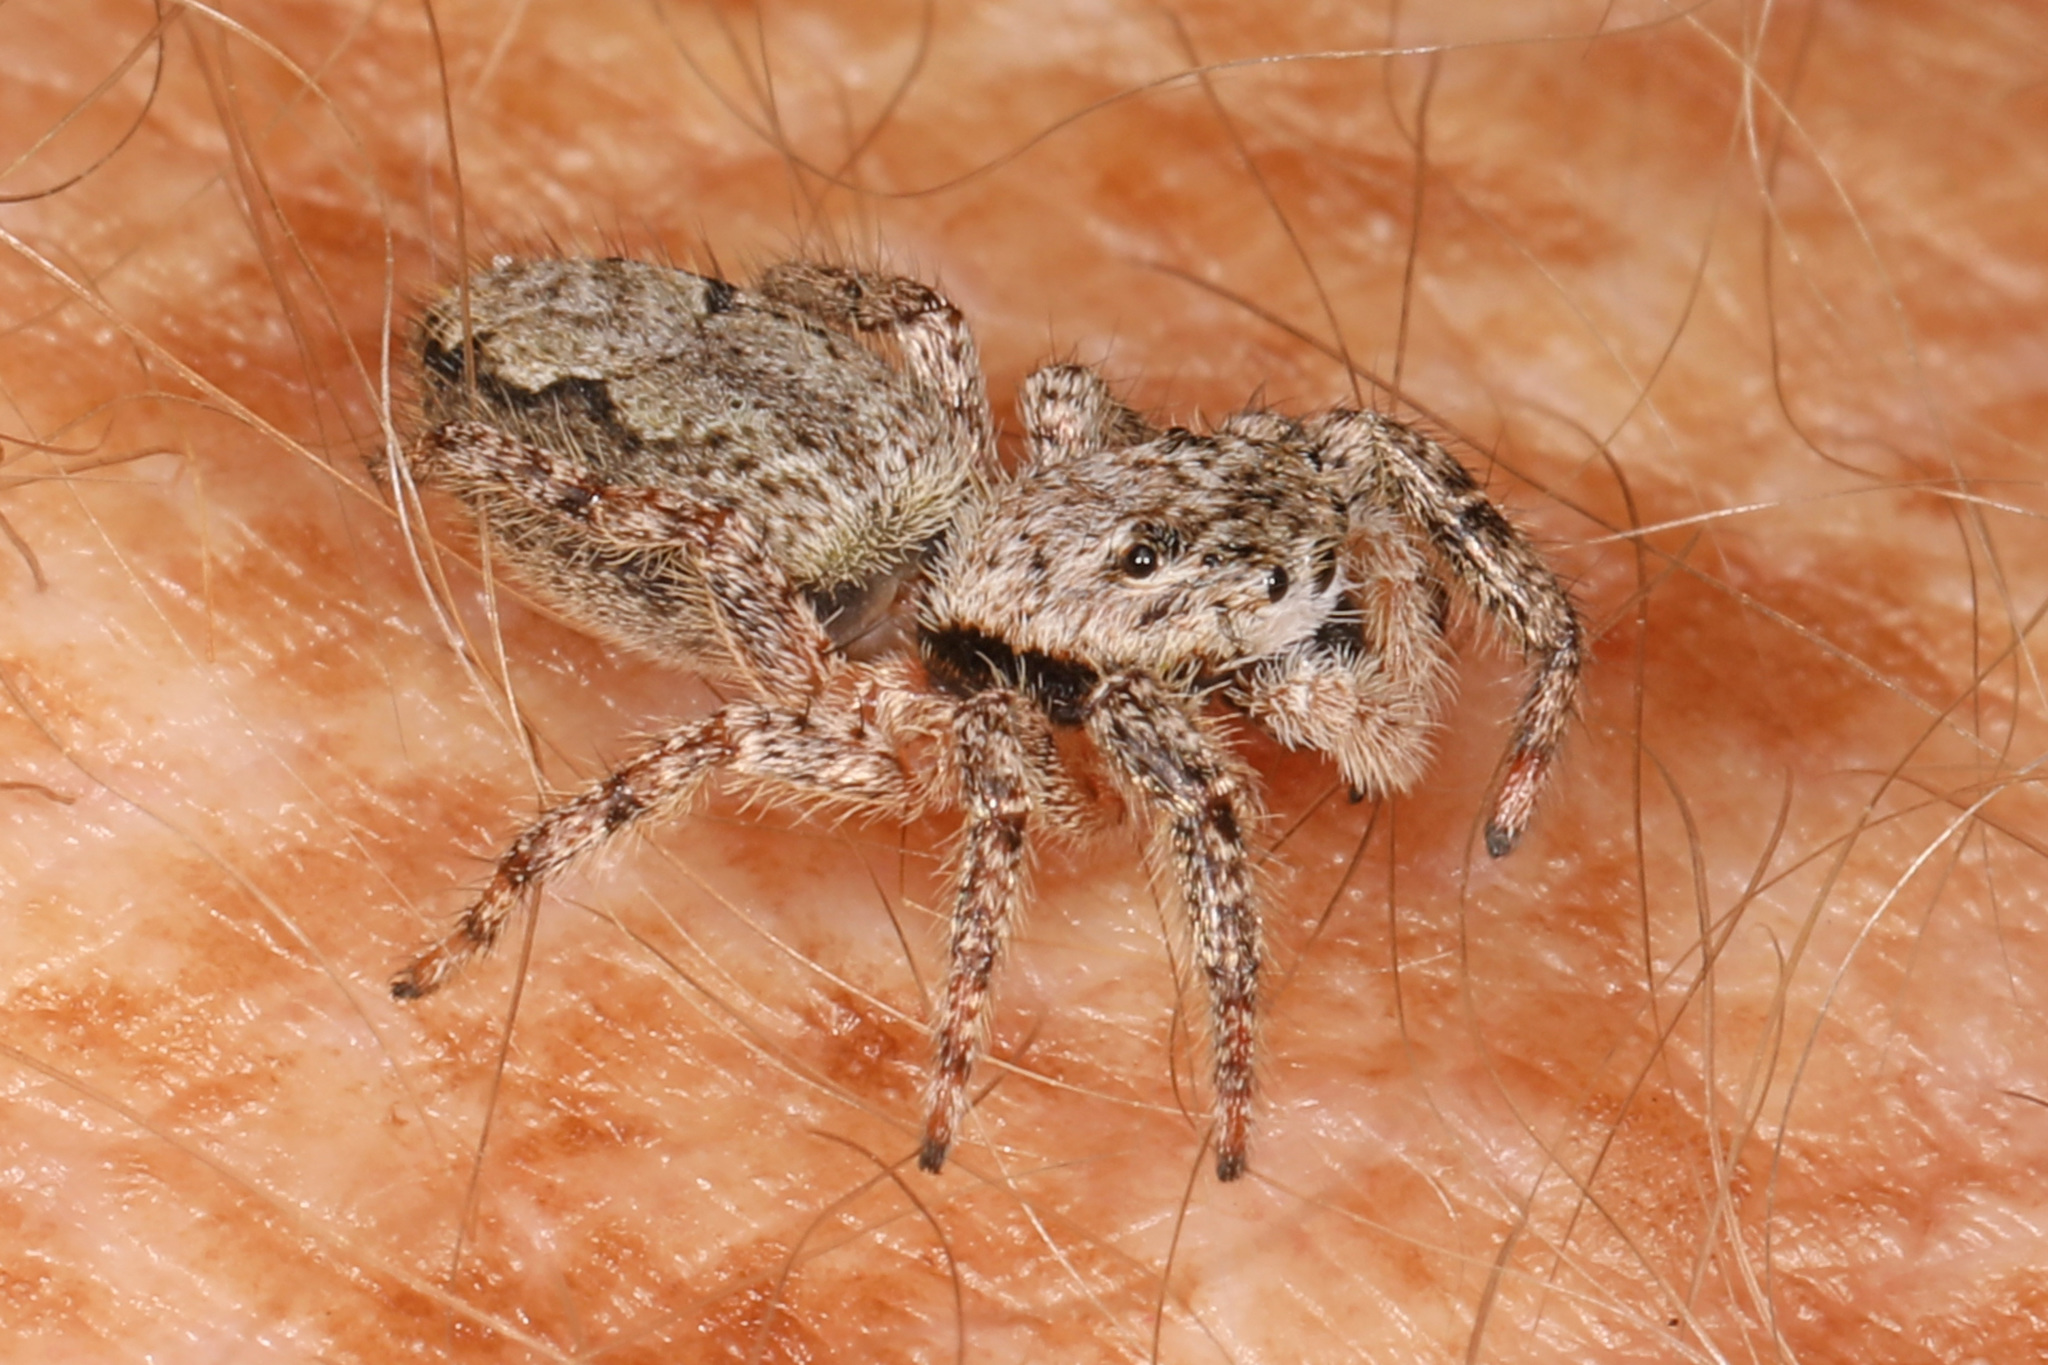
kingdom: Animalia
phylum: Arthropoda
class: Arachnida
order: Araneae
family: Salticidae
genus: Platycryptus
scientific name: Platycryptus undatus
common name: Tan jumping spider
